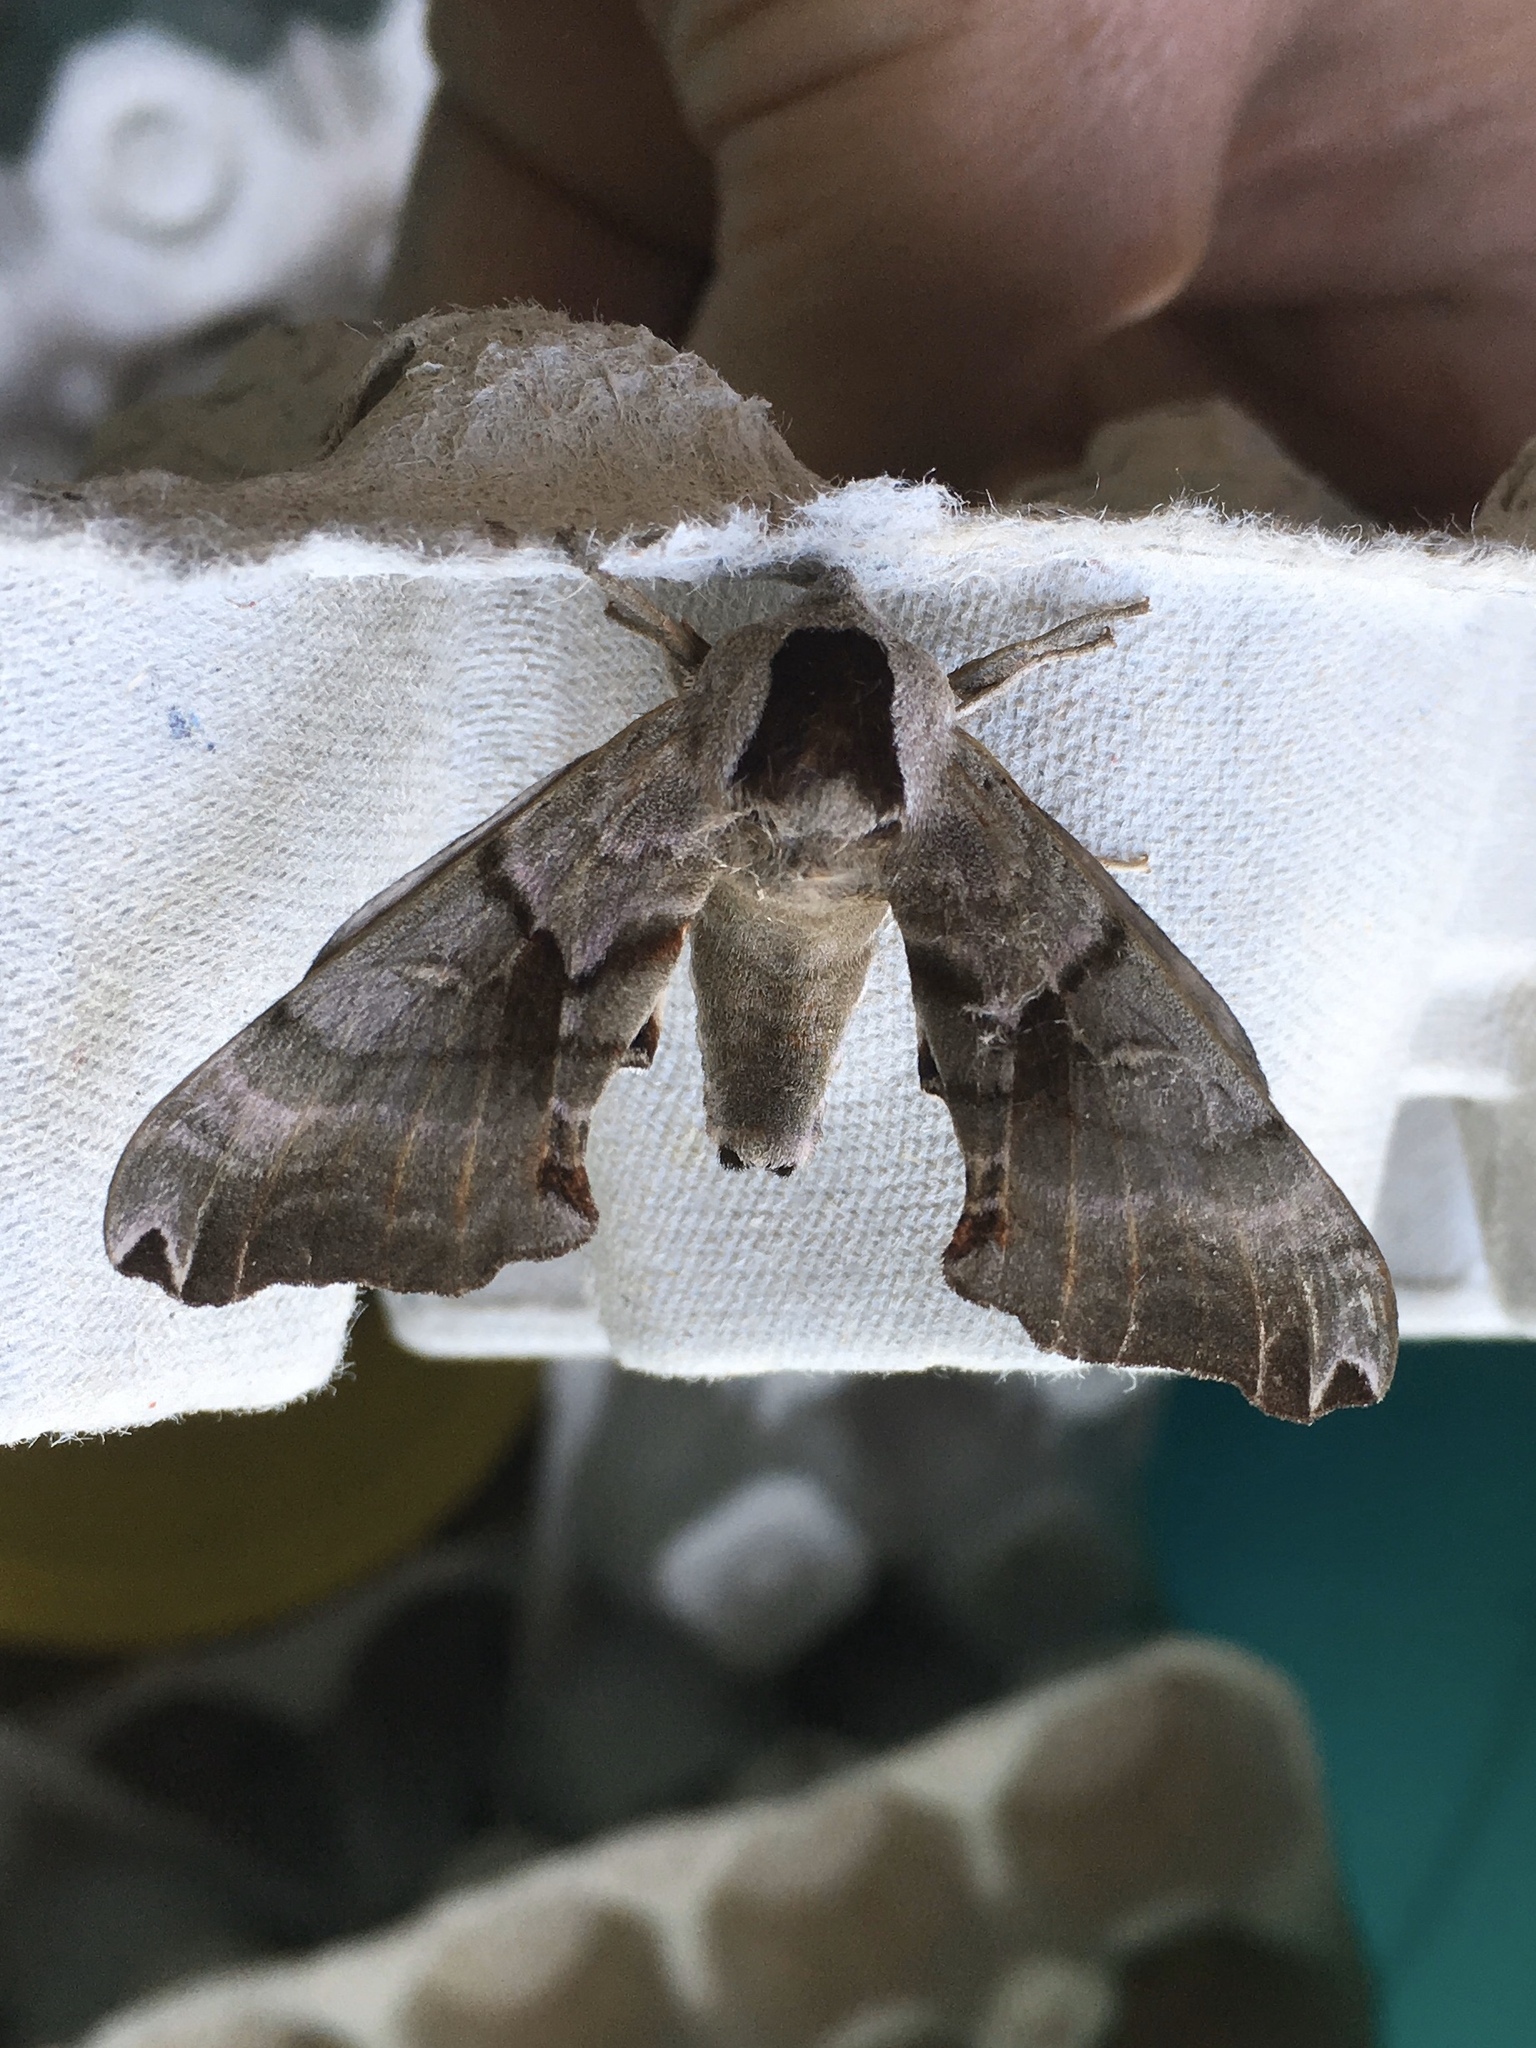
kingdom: Animalia
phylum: Arthropoda
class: Insecta
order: Lepidoptera
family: Sphingidae
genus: Smerinthus
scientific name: Smerinthus jamaicensis
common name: Twin spotted sphinx
